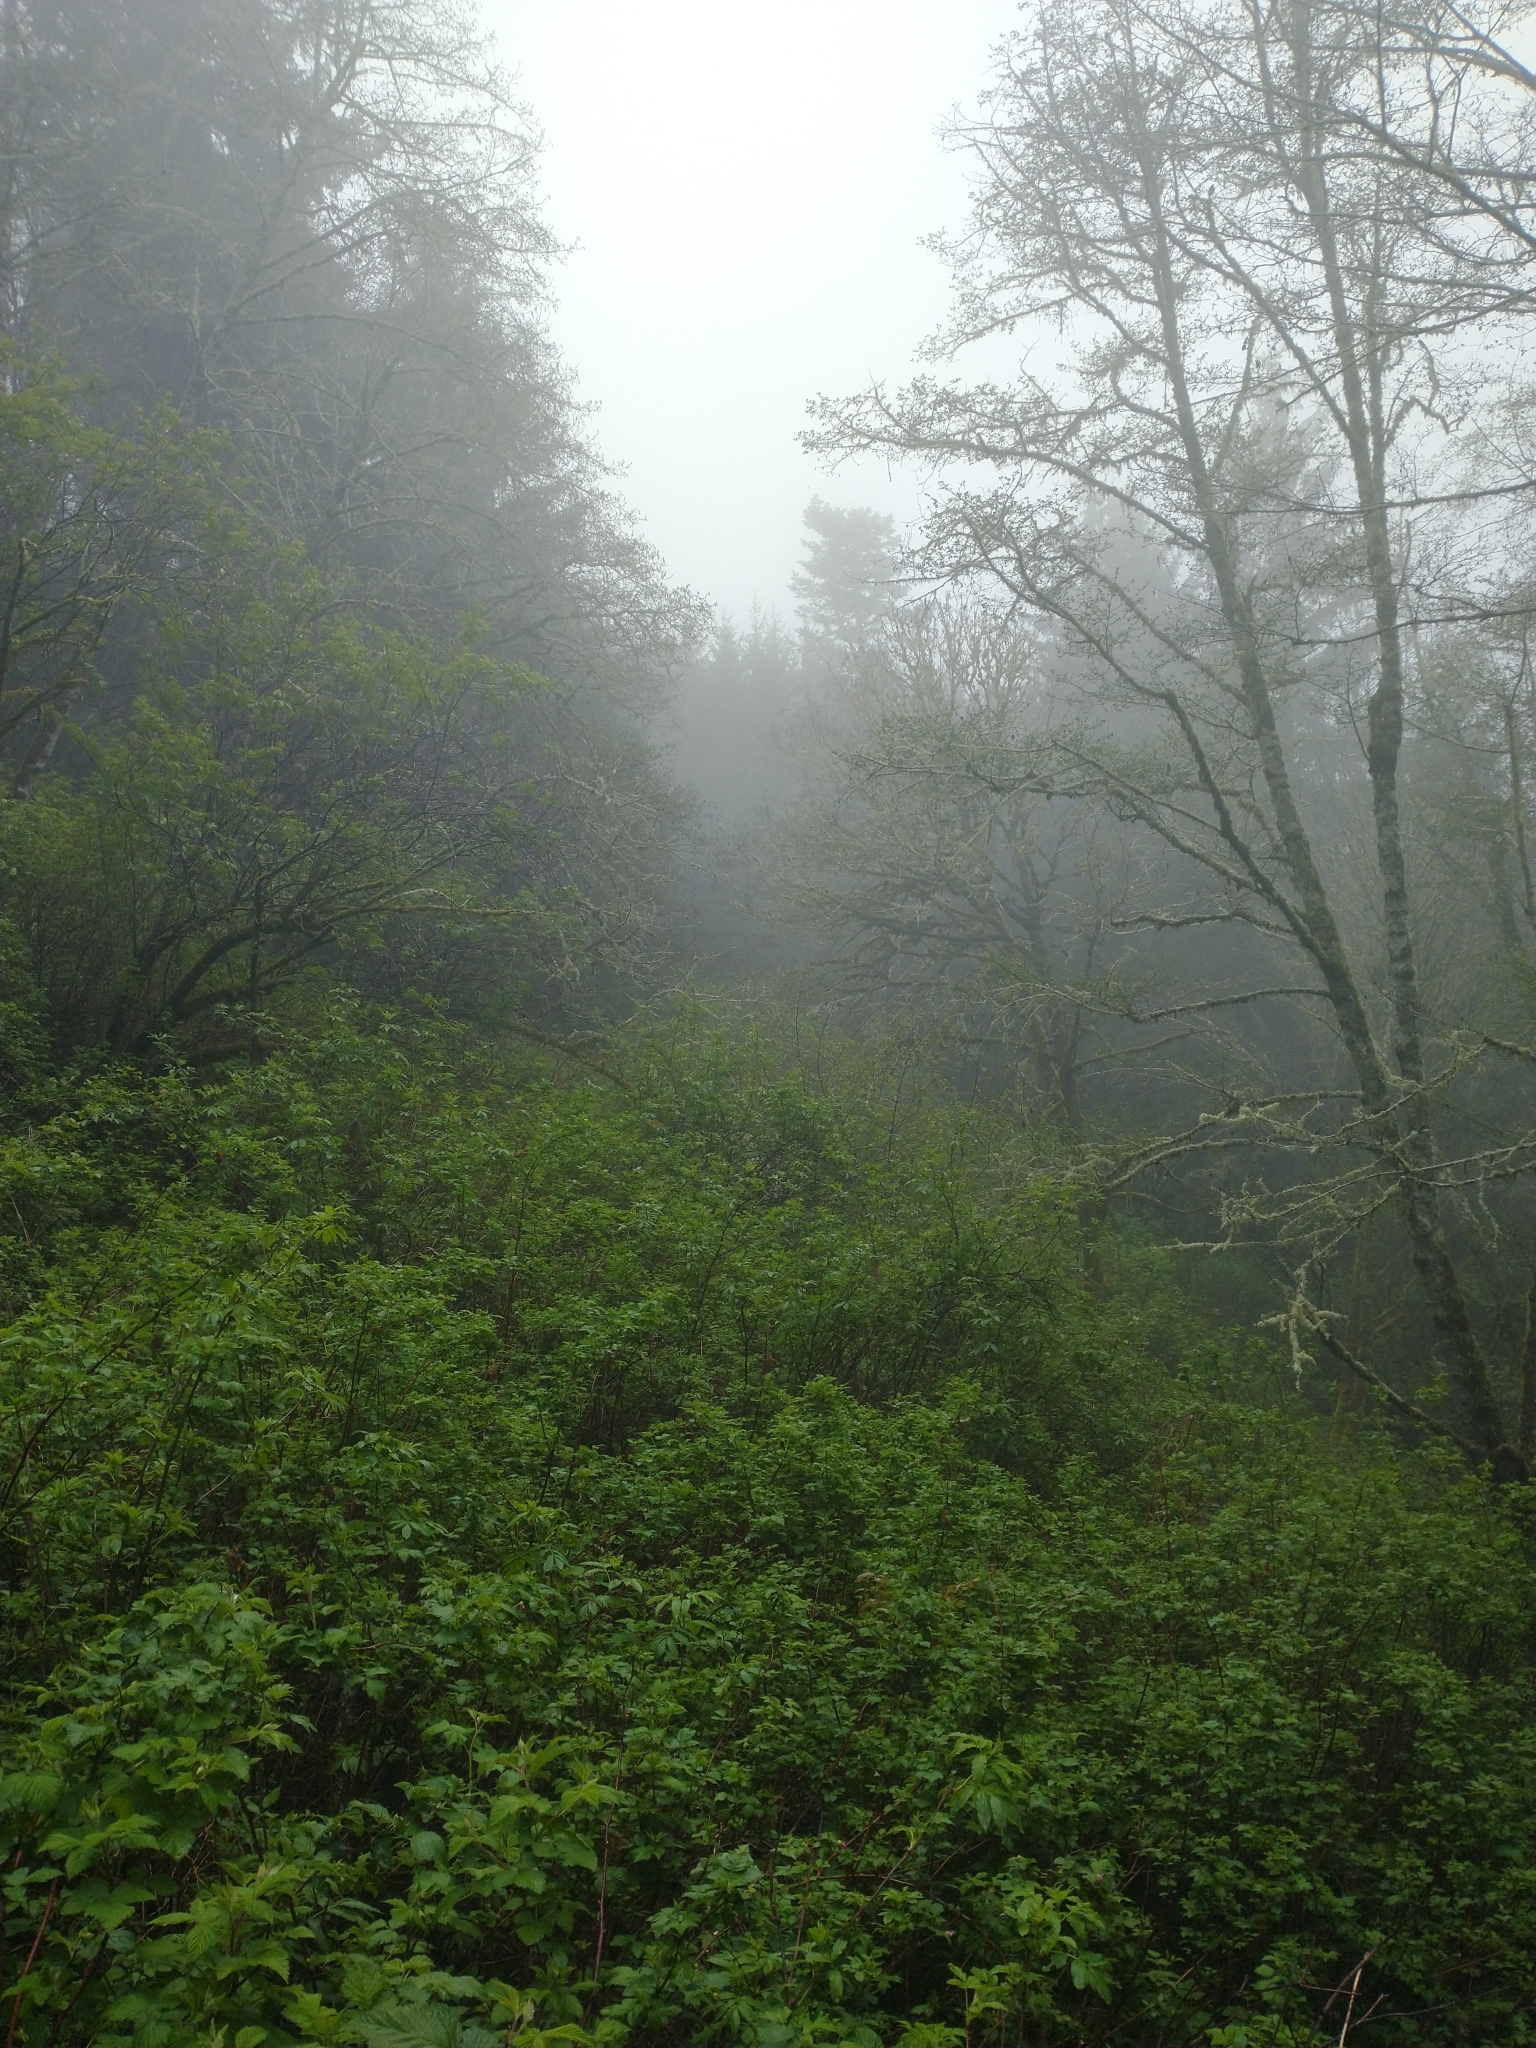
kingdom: Plantae
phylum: Tracheophyta
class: Magnoliopsida
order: Dipsacales
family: Viburnaceae
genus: Sambucus
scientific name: Sambucus racemosa
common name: Red-berried elder
